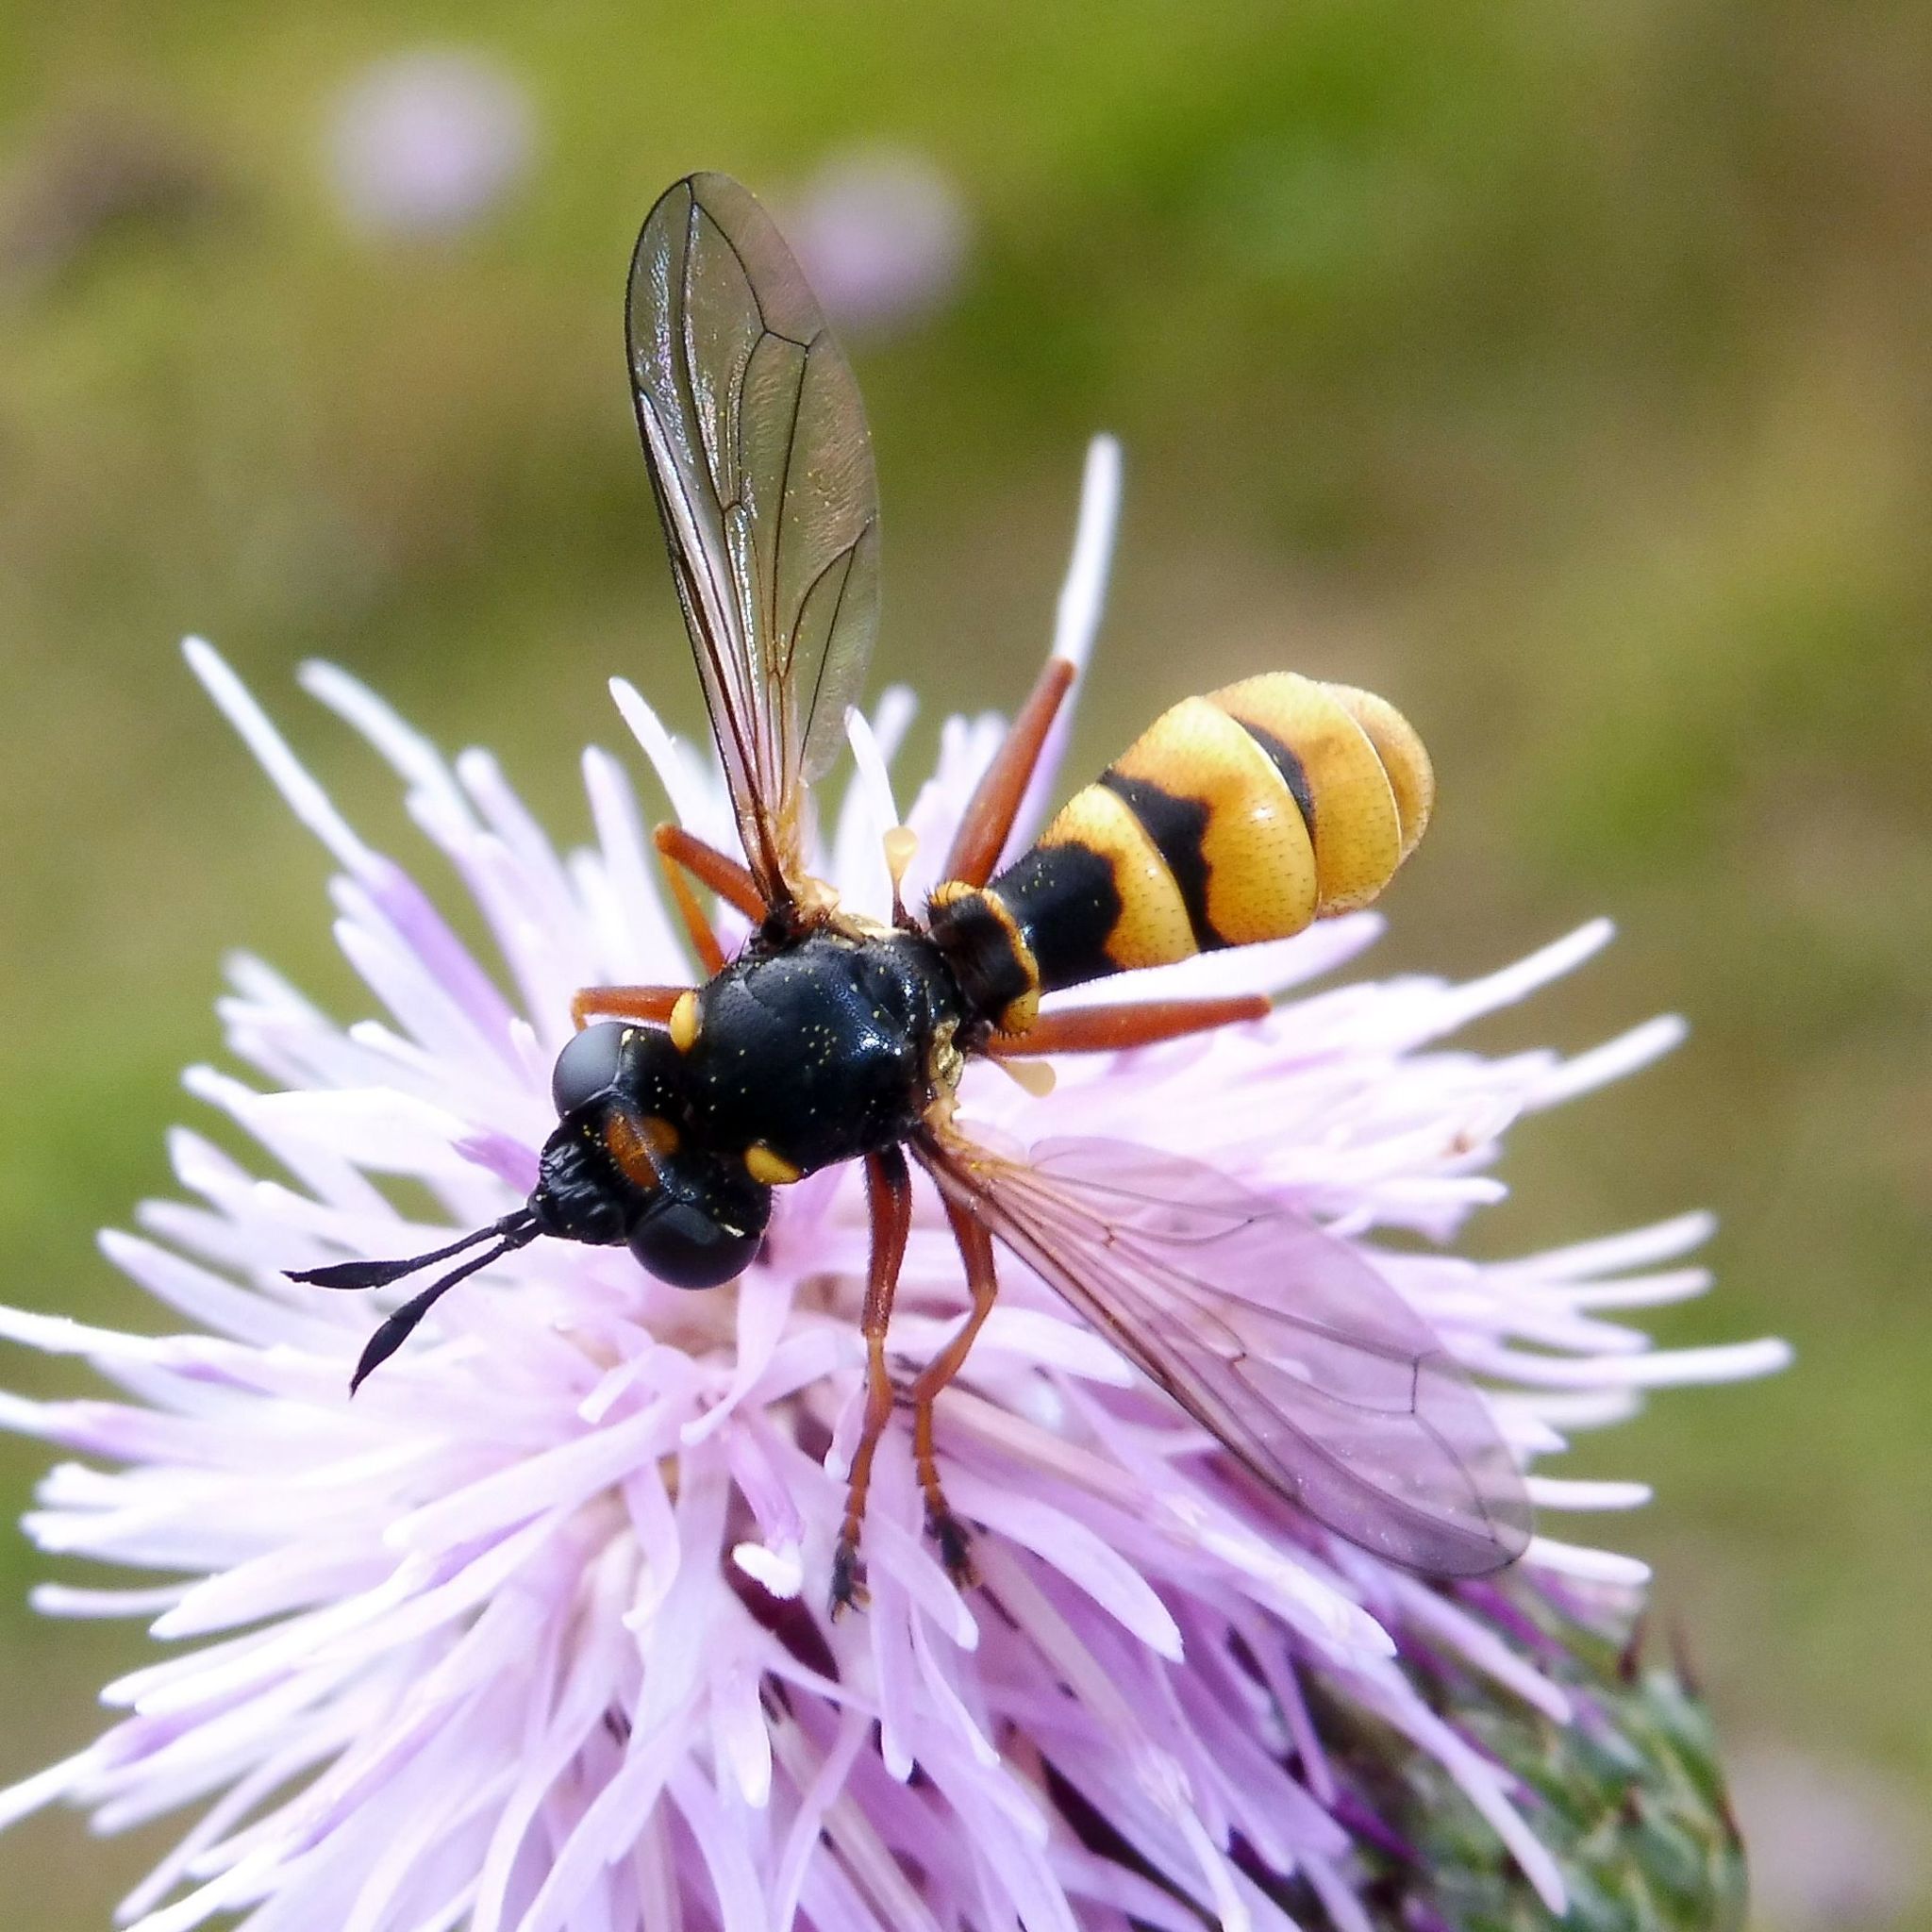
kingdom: Animalia
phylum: Arthropoda
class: Insecta
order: Diptera
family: Conopidae
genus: Conops
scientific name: Conops quadrifasciatus
